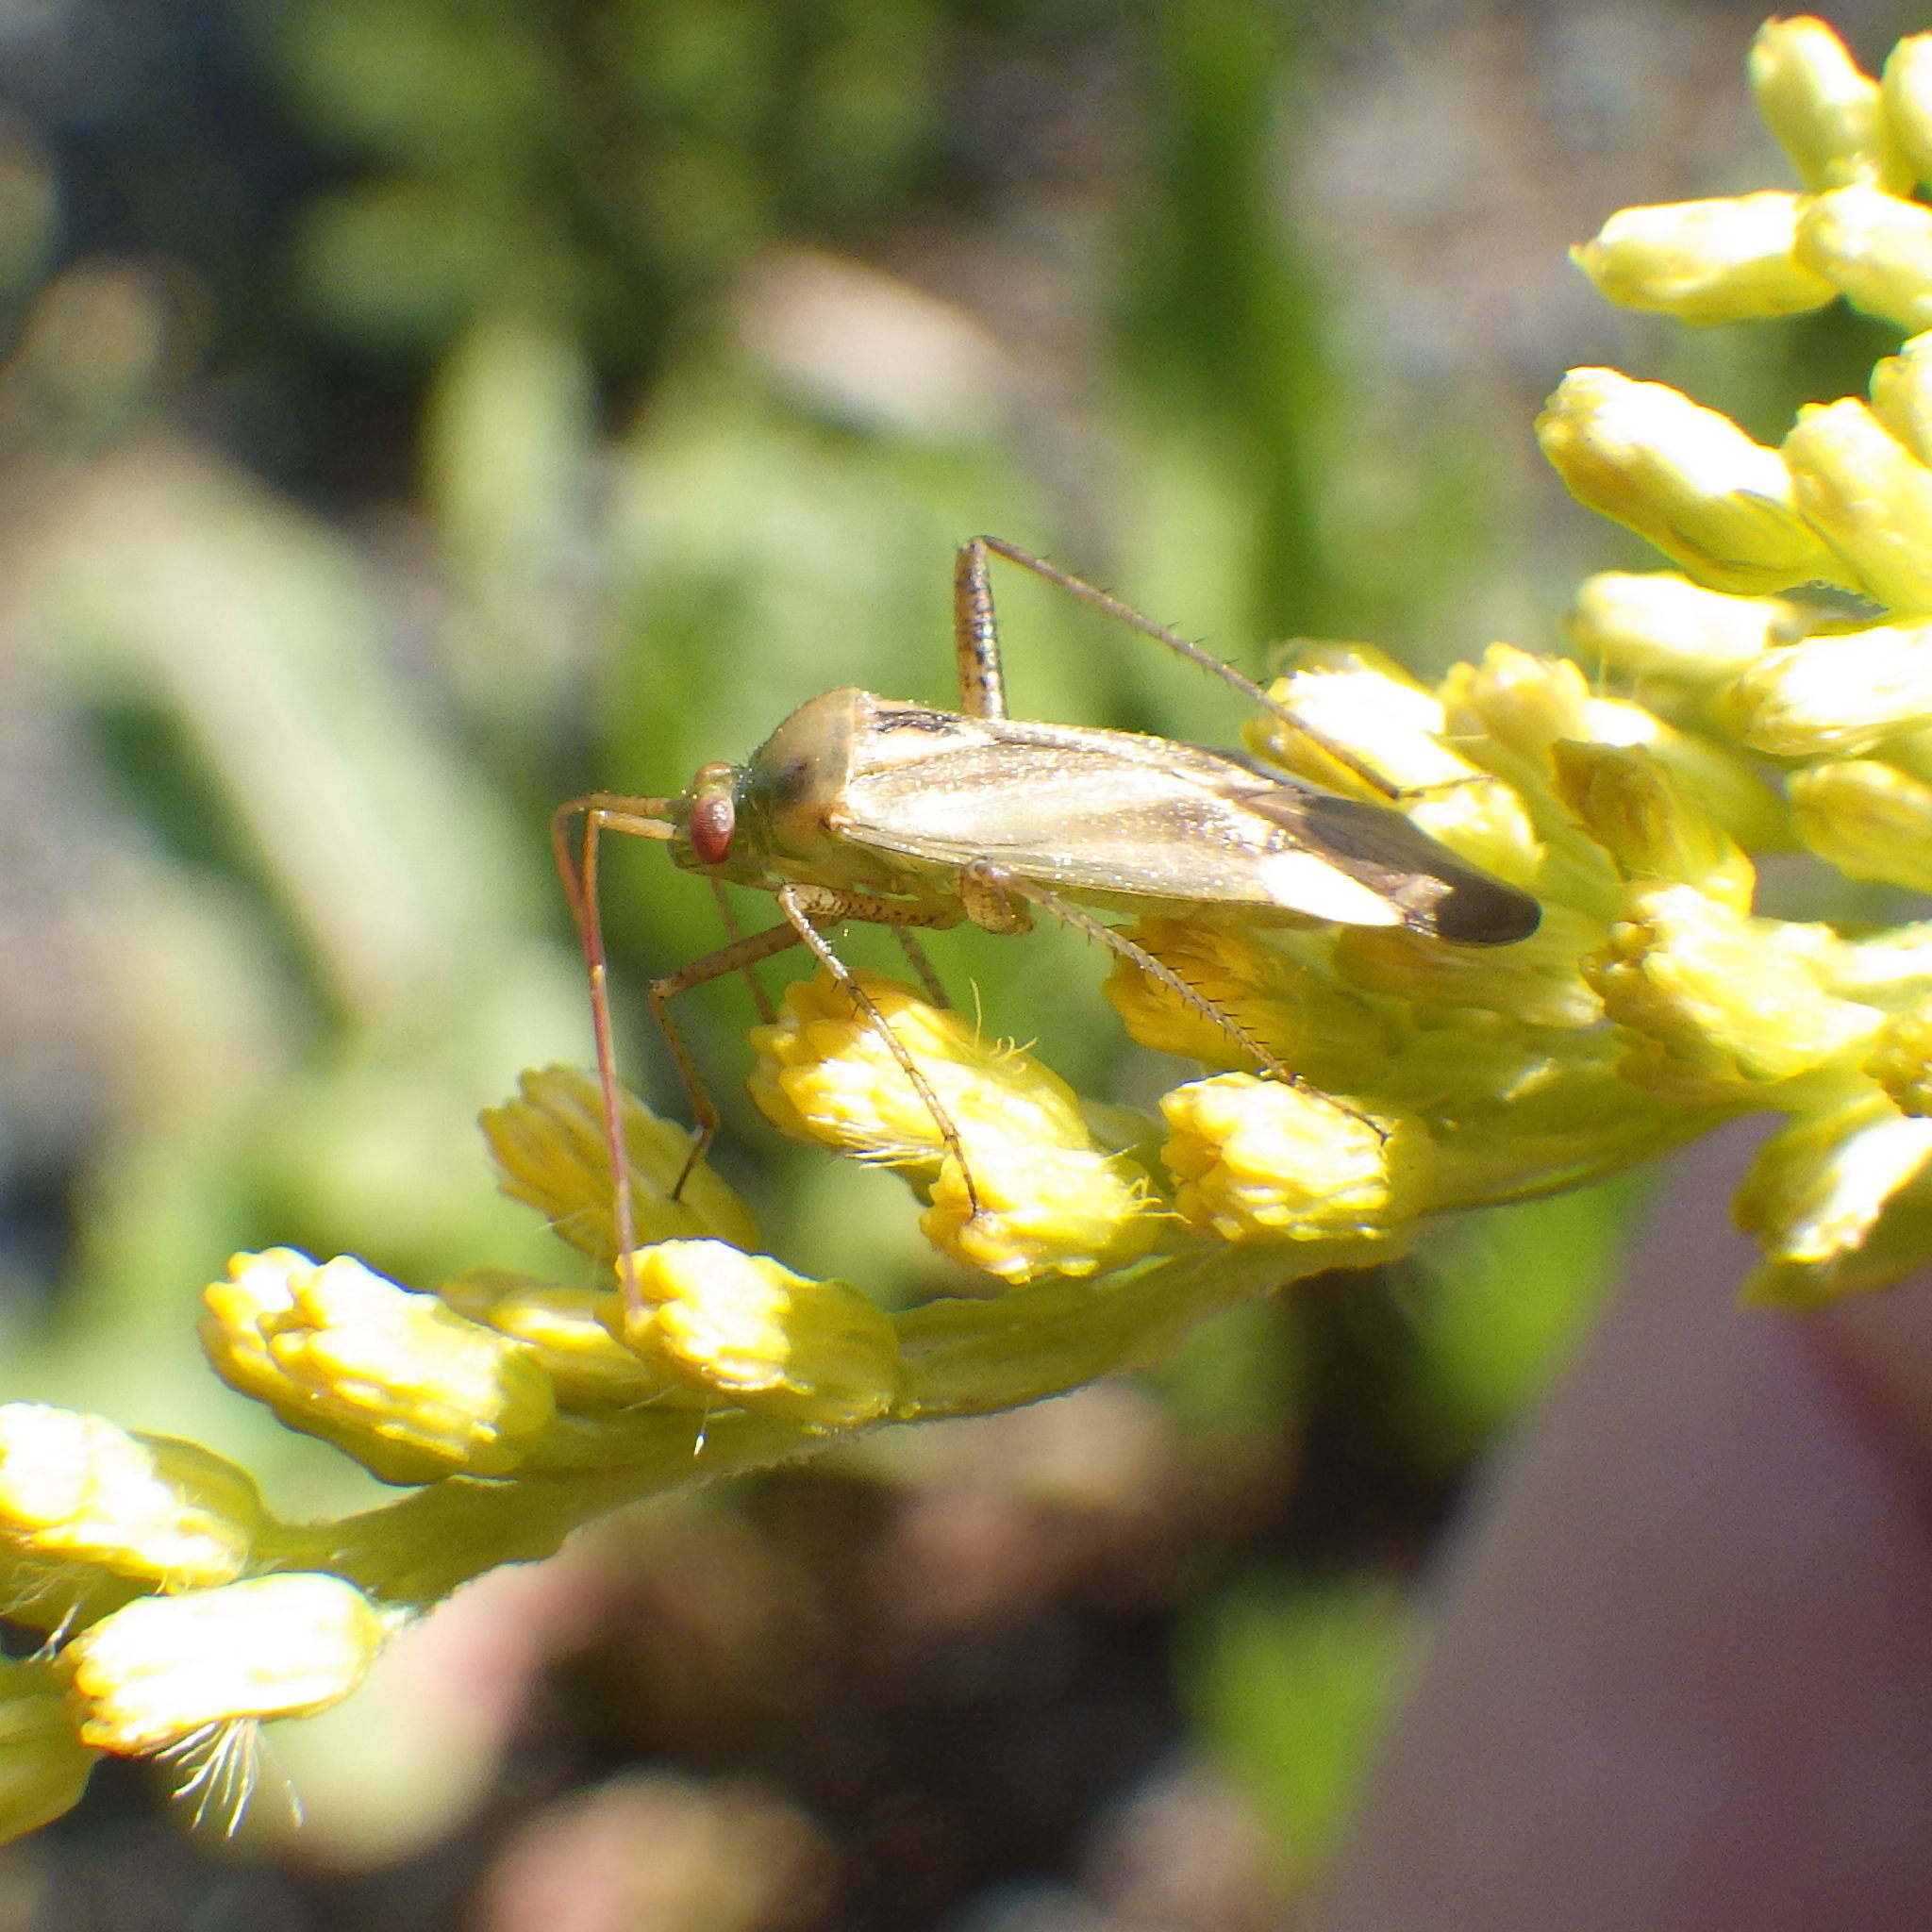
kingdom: Animalia
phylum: Arthropoda
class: Insecta
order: Hemiptera
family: Miridae
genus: Adelphocoris
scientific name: Adelphocoris lineolatus
